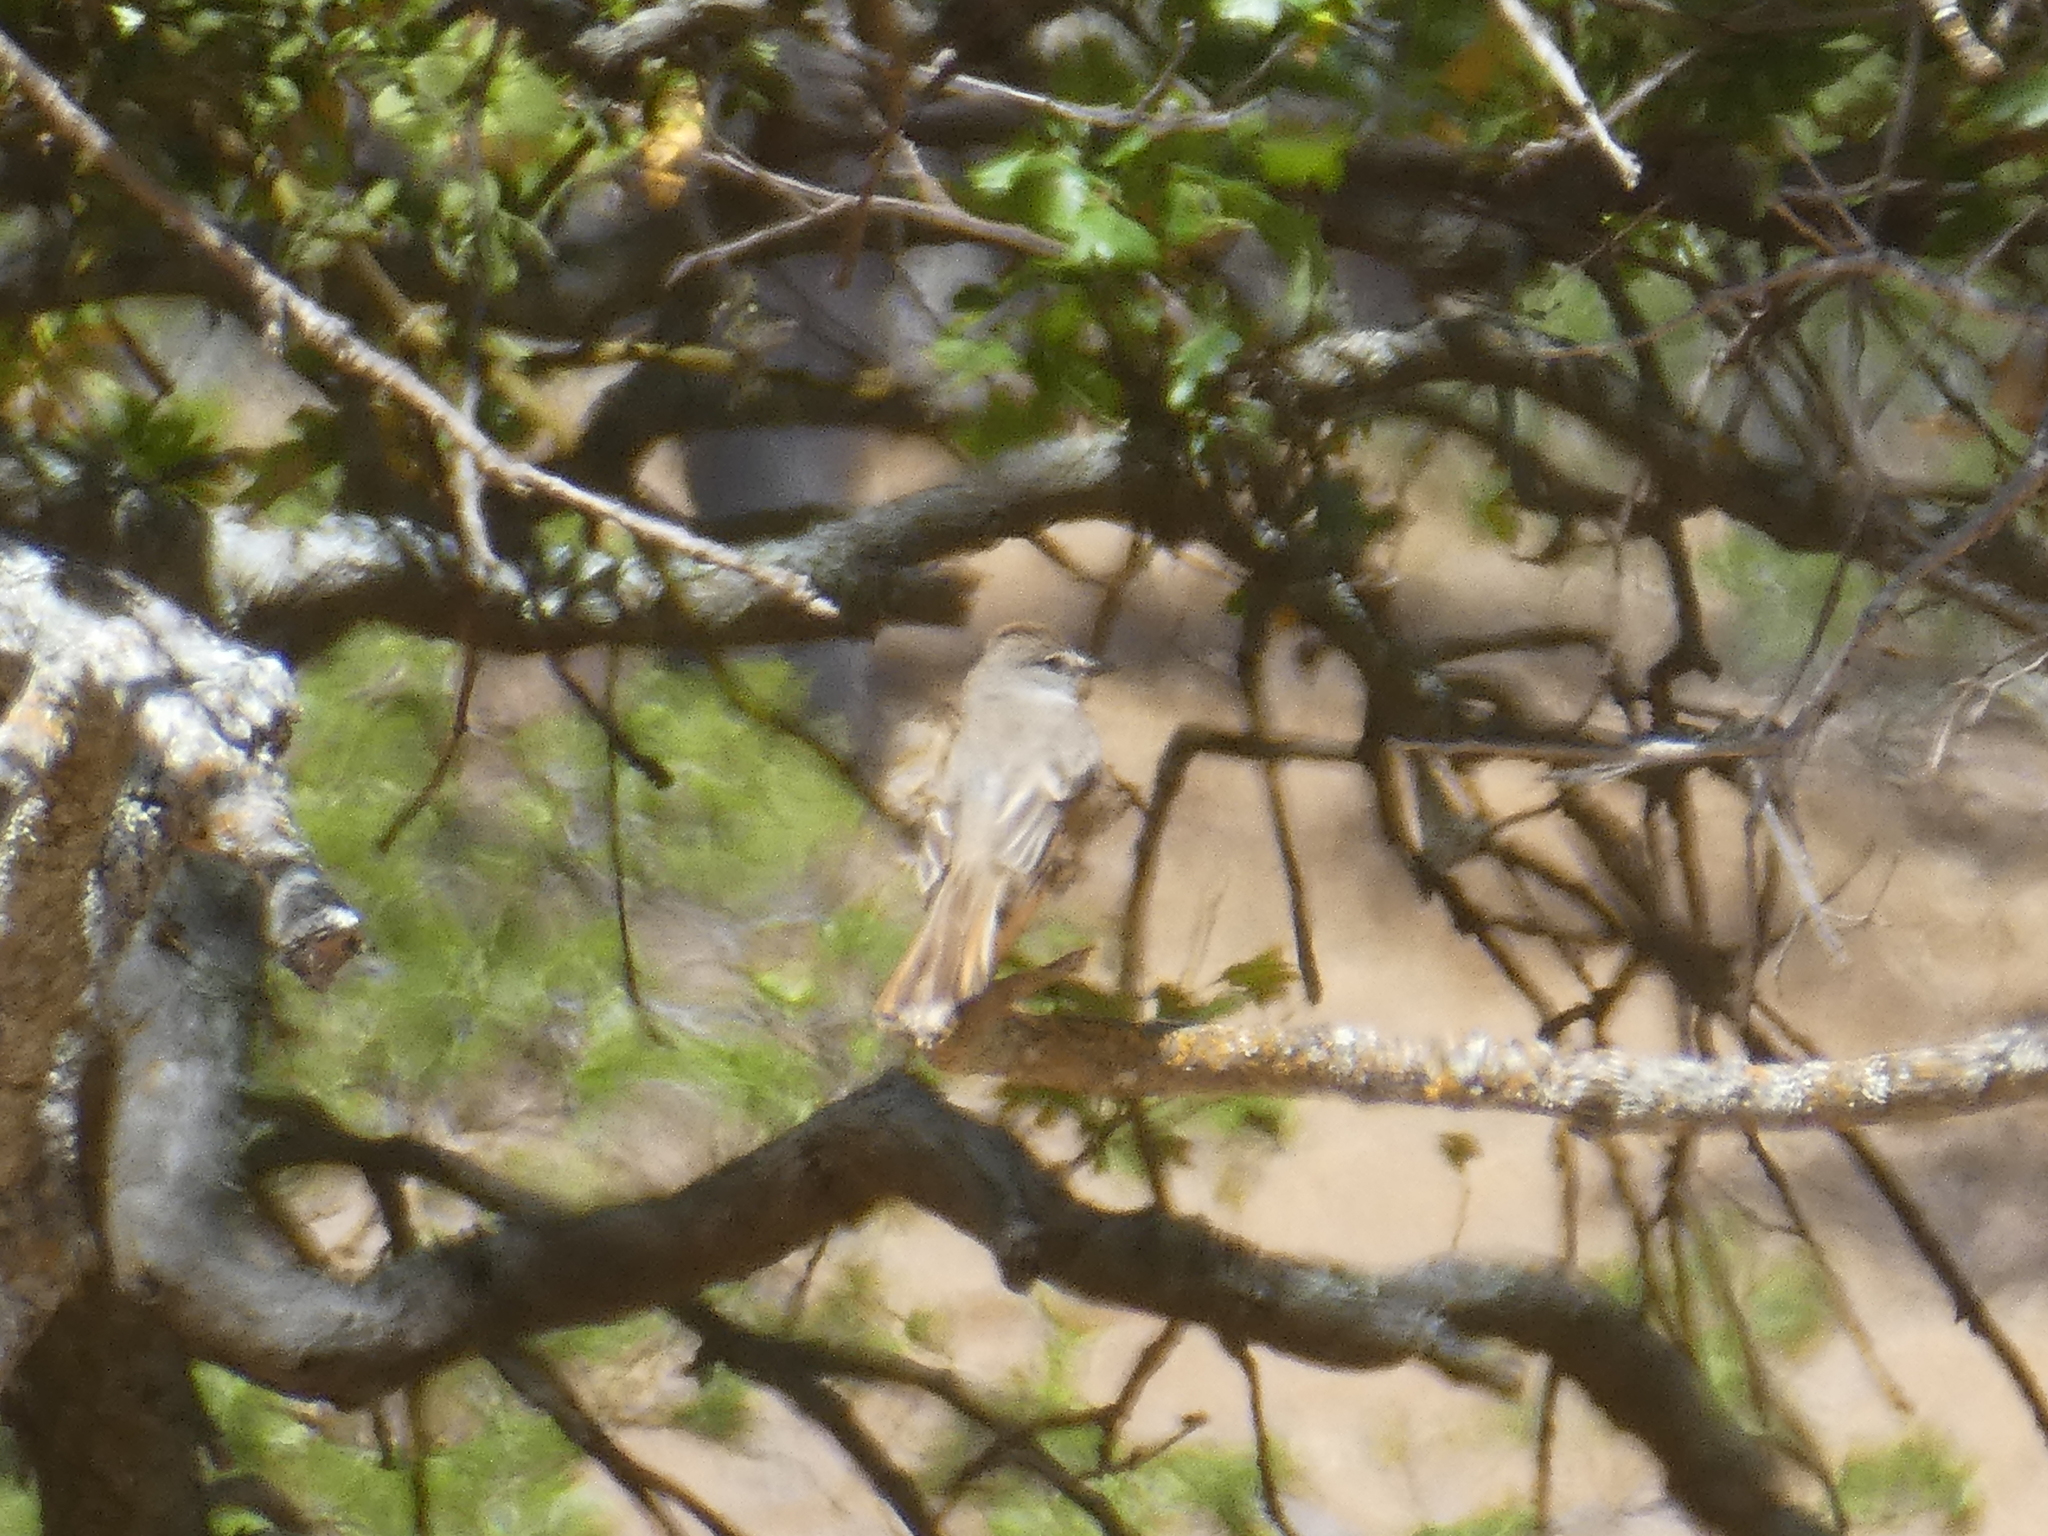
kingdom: Animalia
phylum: Chordata
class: Aves
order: Passeriformes
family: Tyrannidae
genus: Myiarchus
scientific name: Myiarchus cinerascens
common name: Ash-throated flycatcher
